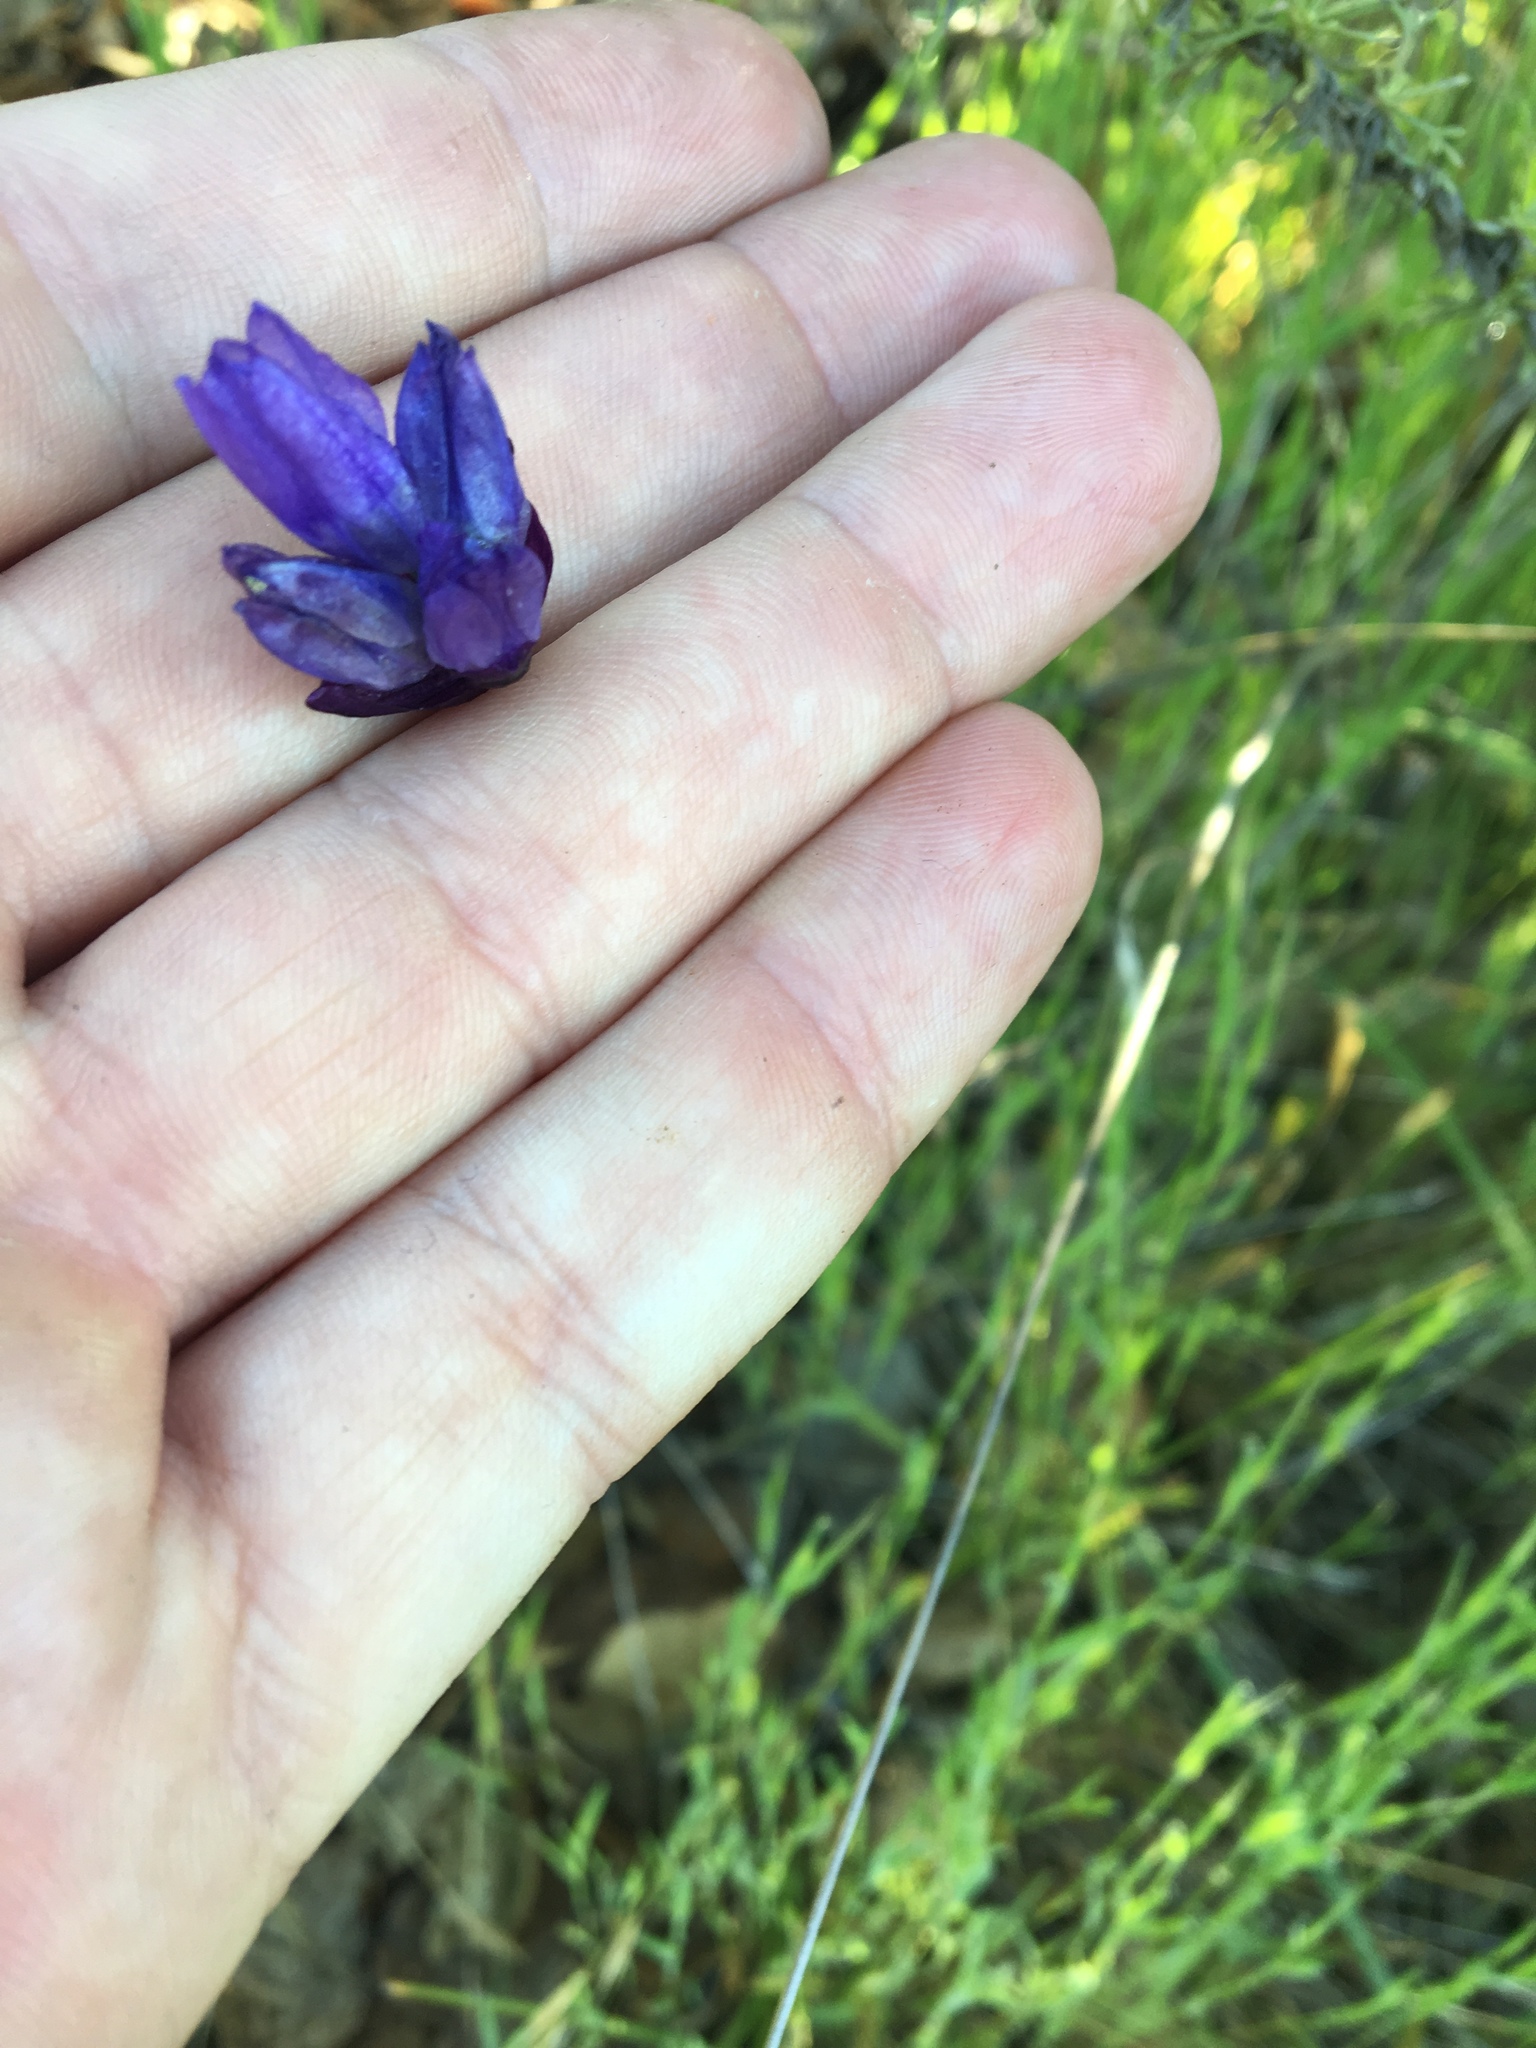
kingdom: Plantae
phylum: Tracheophyta
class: Liliopsida
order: Asparagales
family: Asparagaceae
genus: Dipterostemon
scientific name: Dipterostemon capitatus
